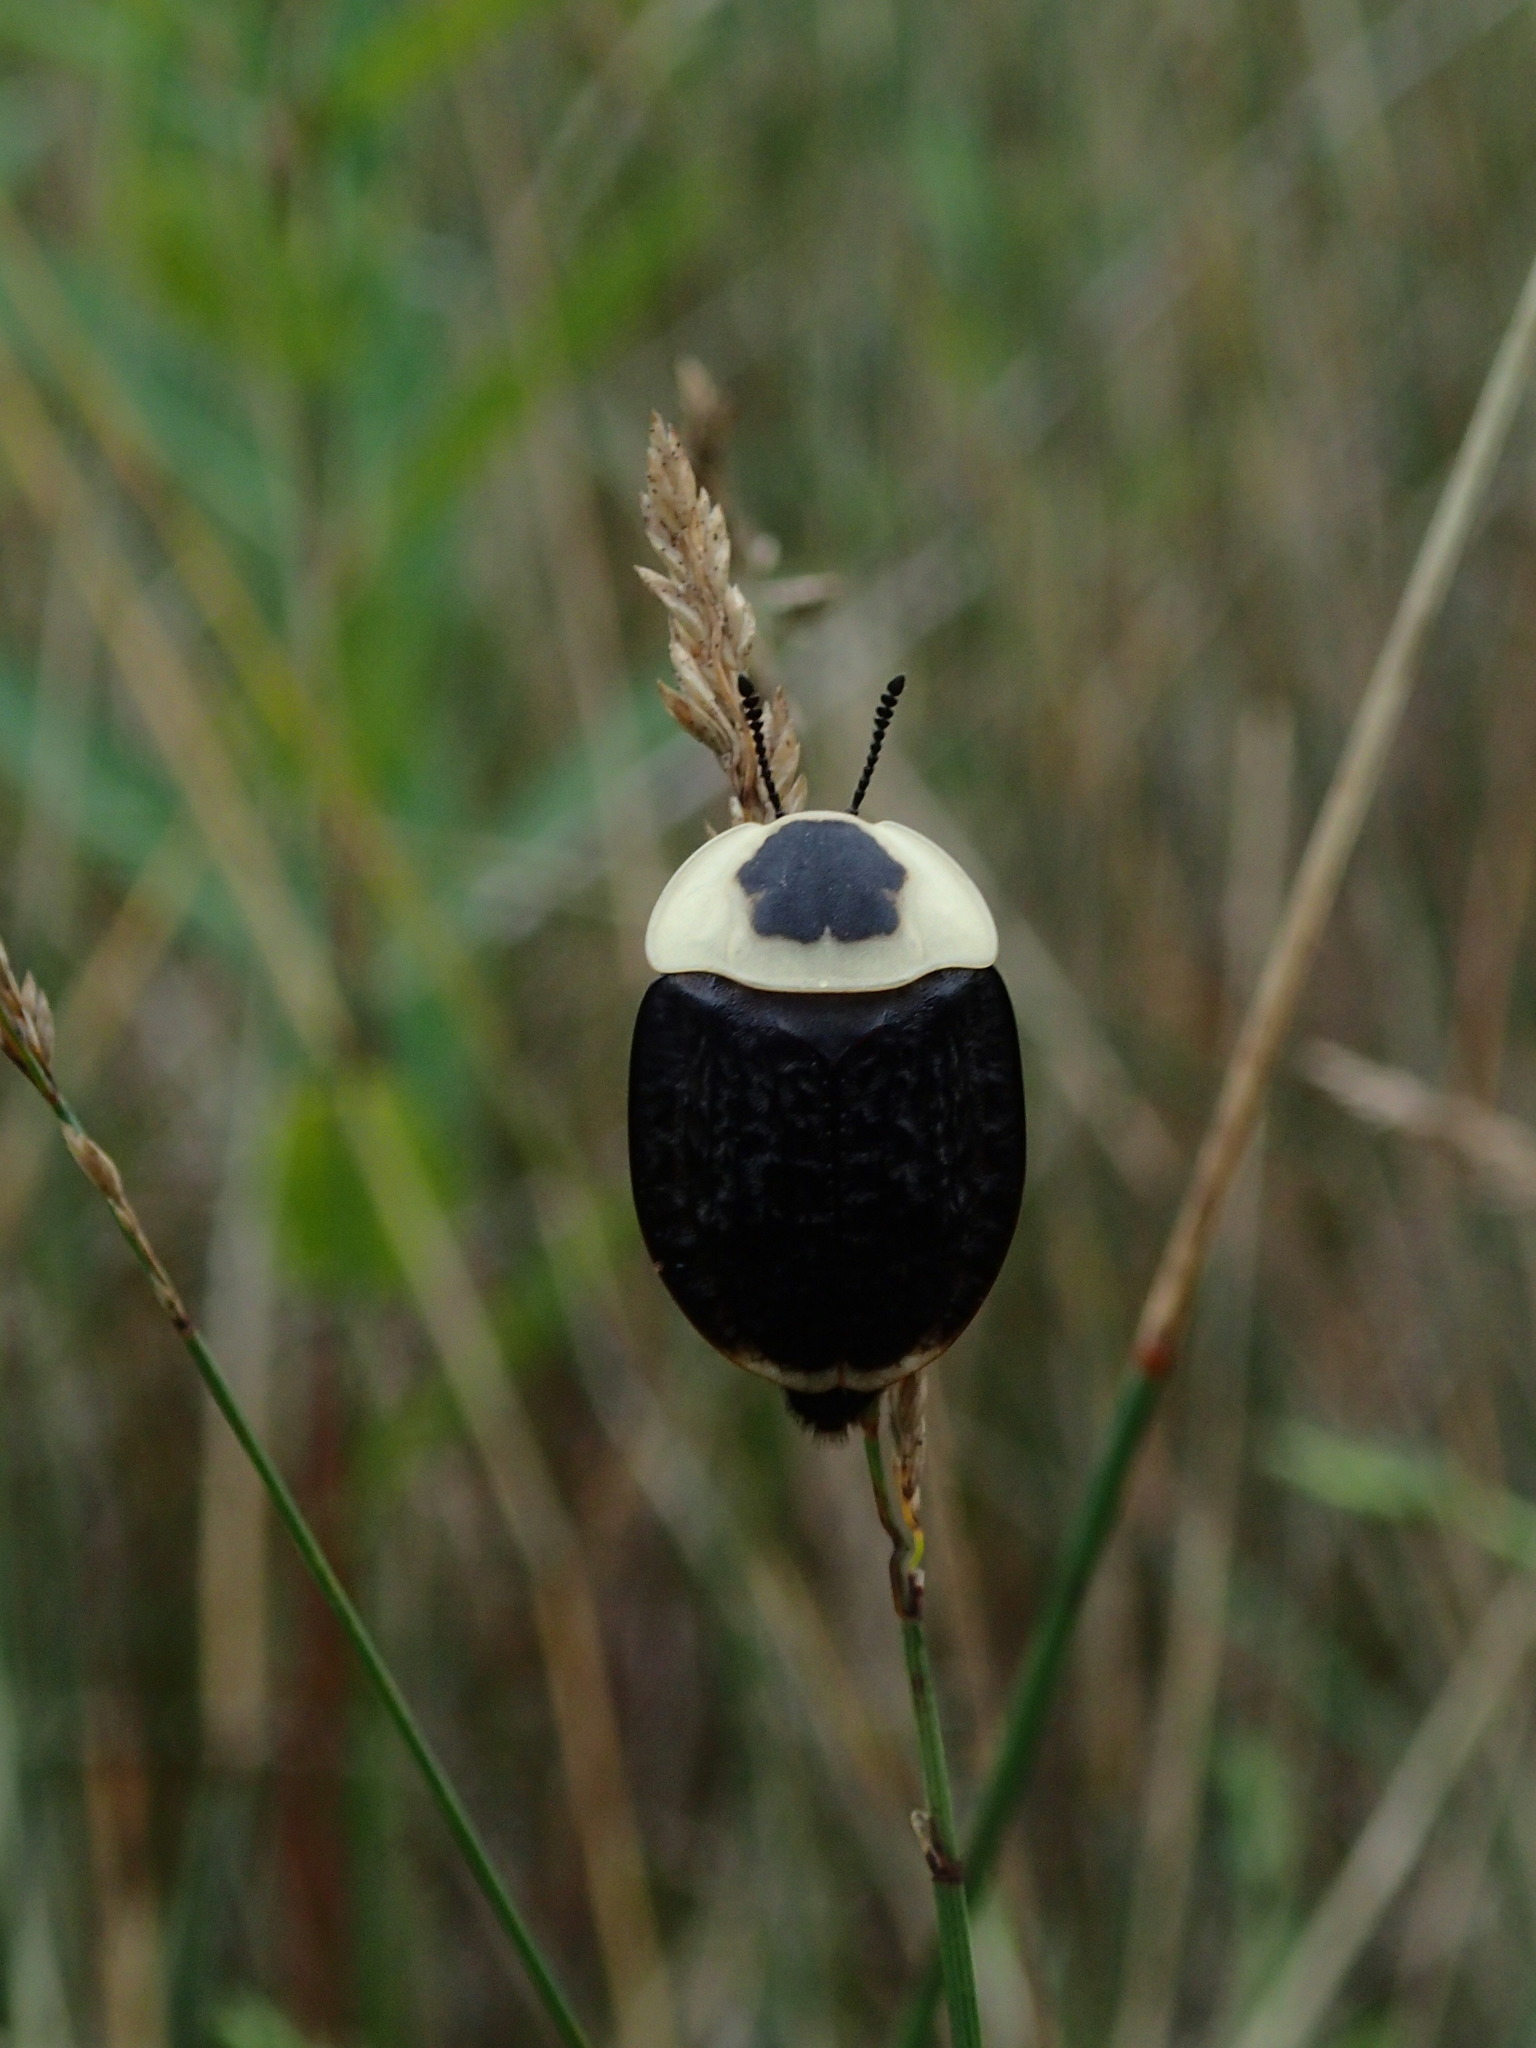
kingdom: Animalia
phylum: Arthropoda
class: Insecta
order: Coleoptera
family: Staphylinidae
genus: Necrophila
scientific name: Necrophila americana
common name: American carrion beetle
